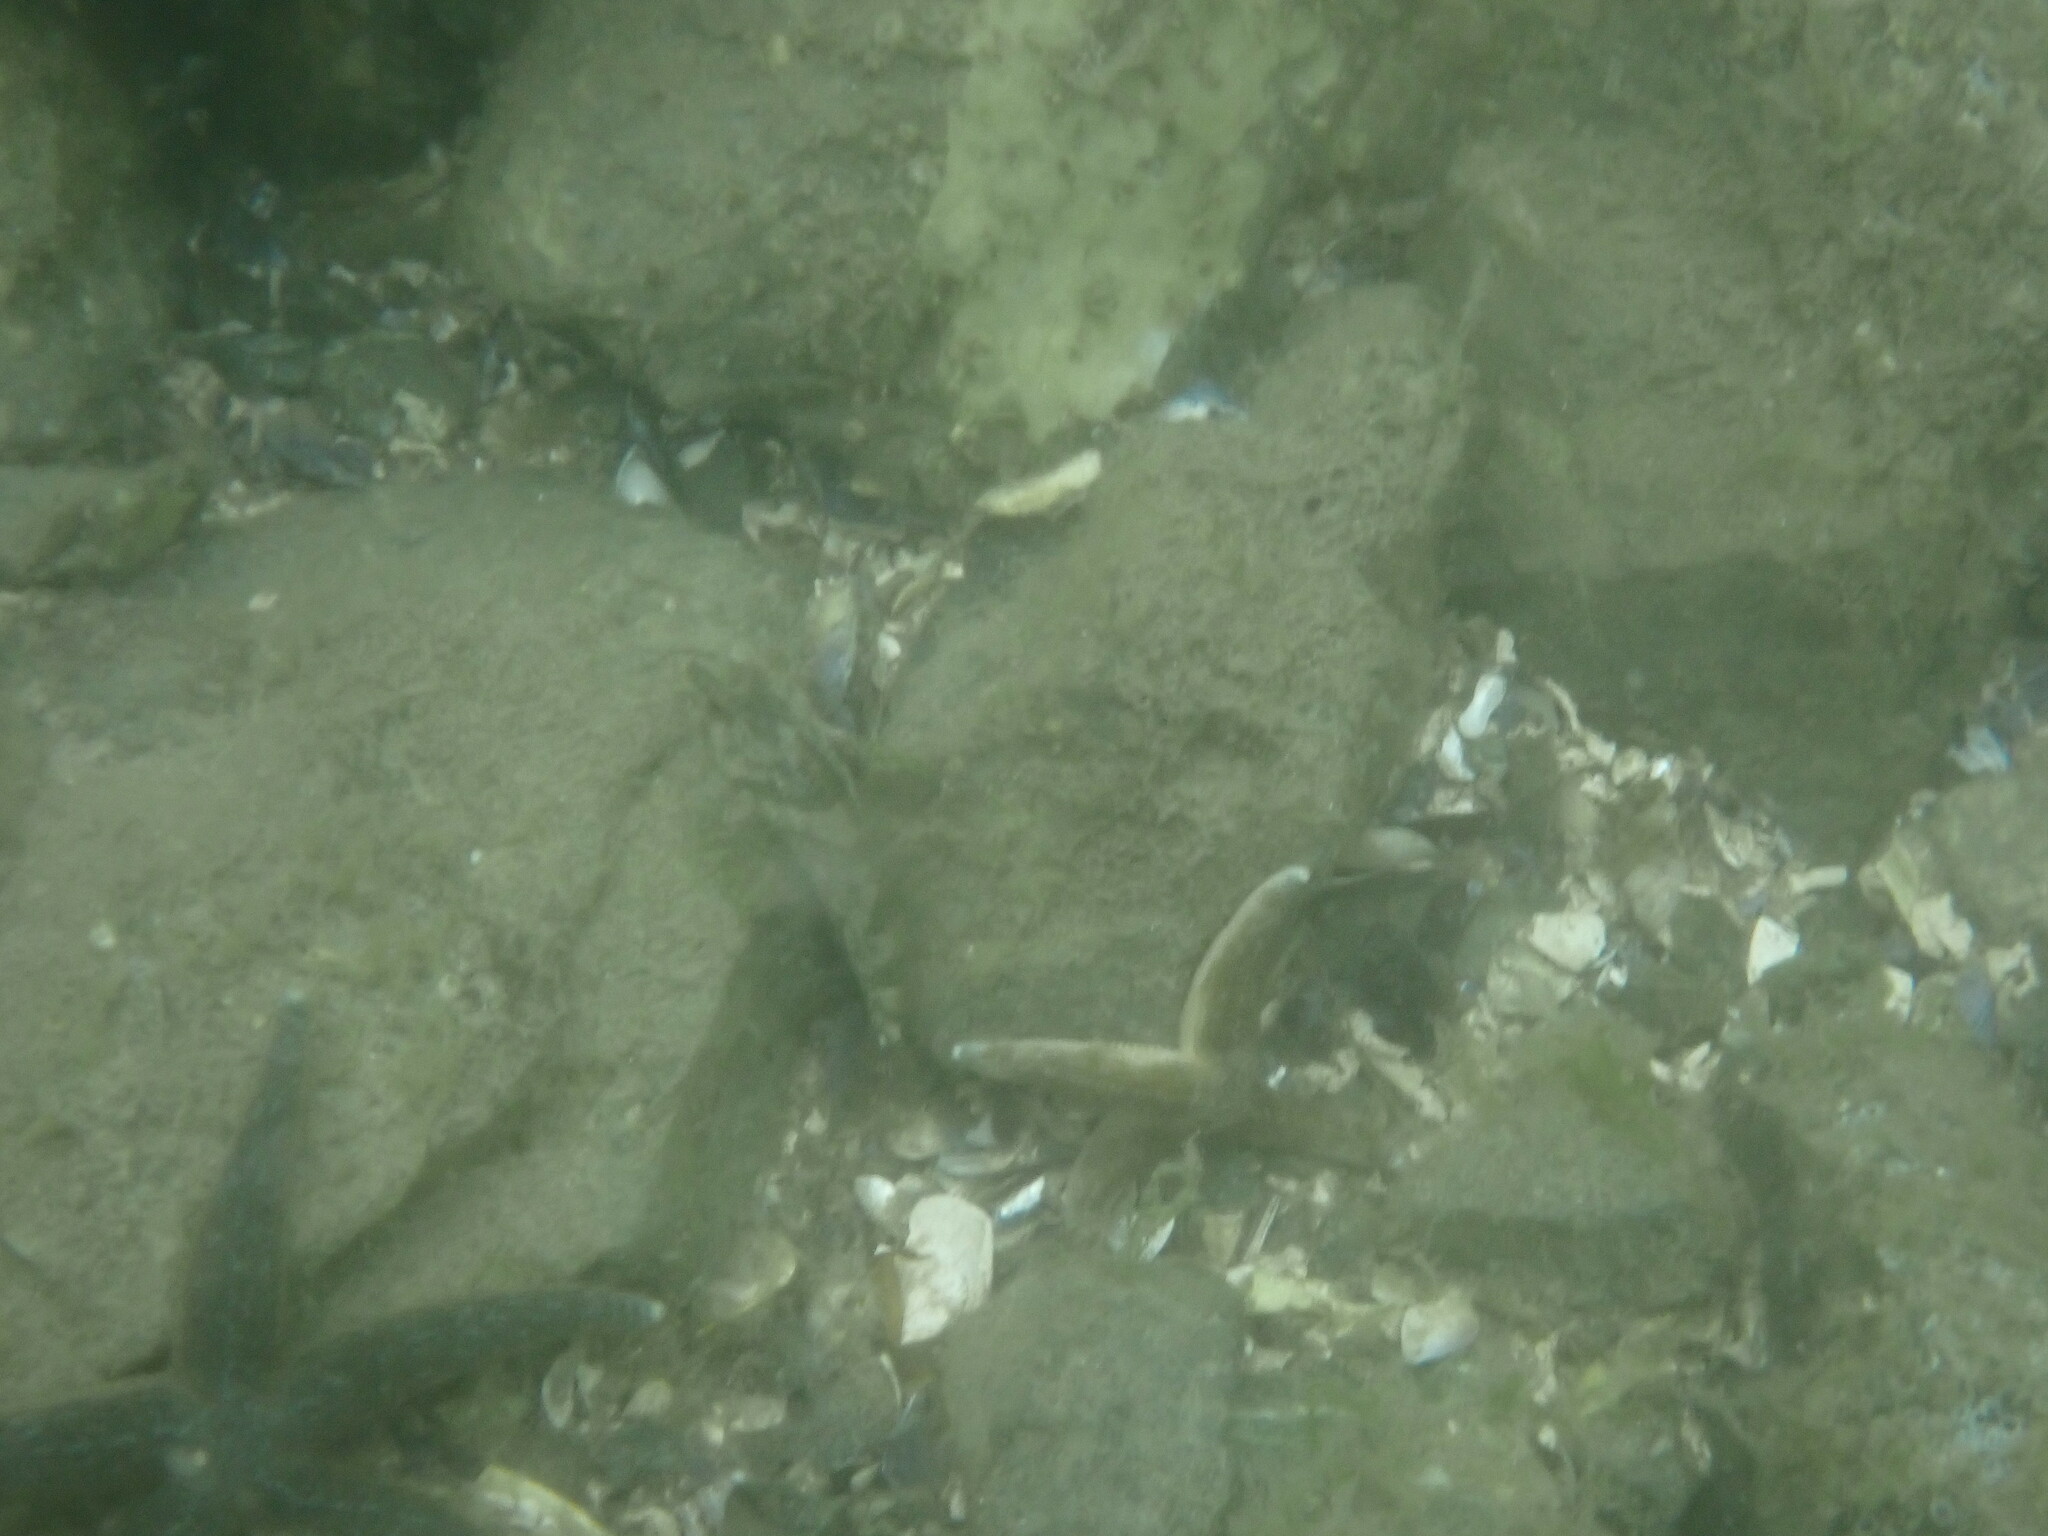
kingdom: Animalia
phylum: Chordata
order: Scorpaeniformes
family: Cottidae
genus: Oligocottus
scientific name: Oligocottus maculosus
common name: Tidepool sculpin
